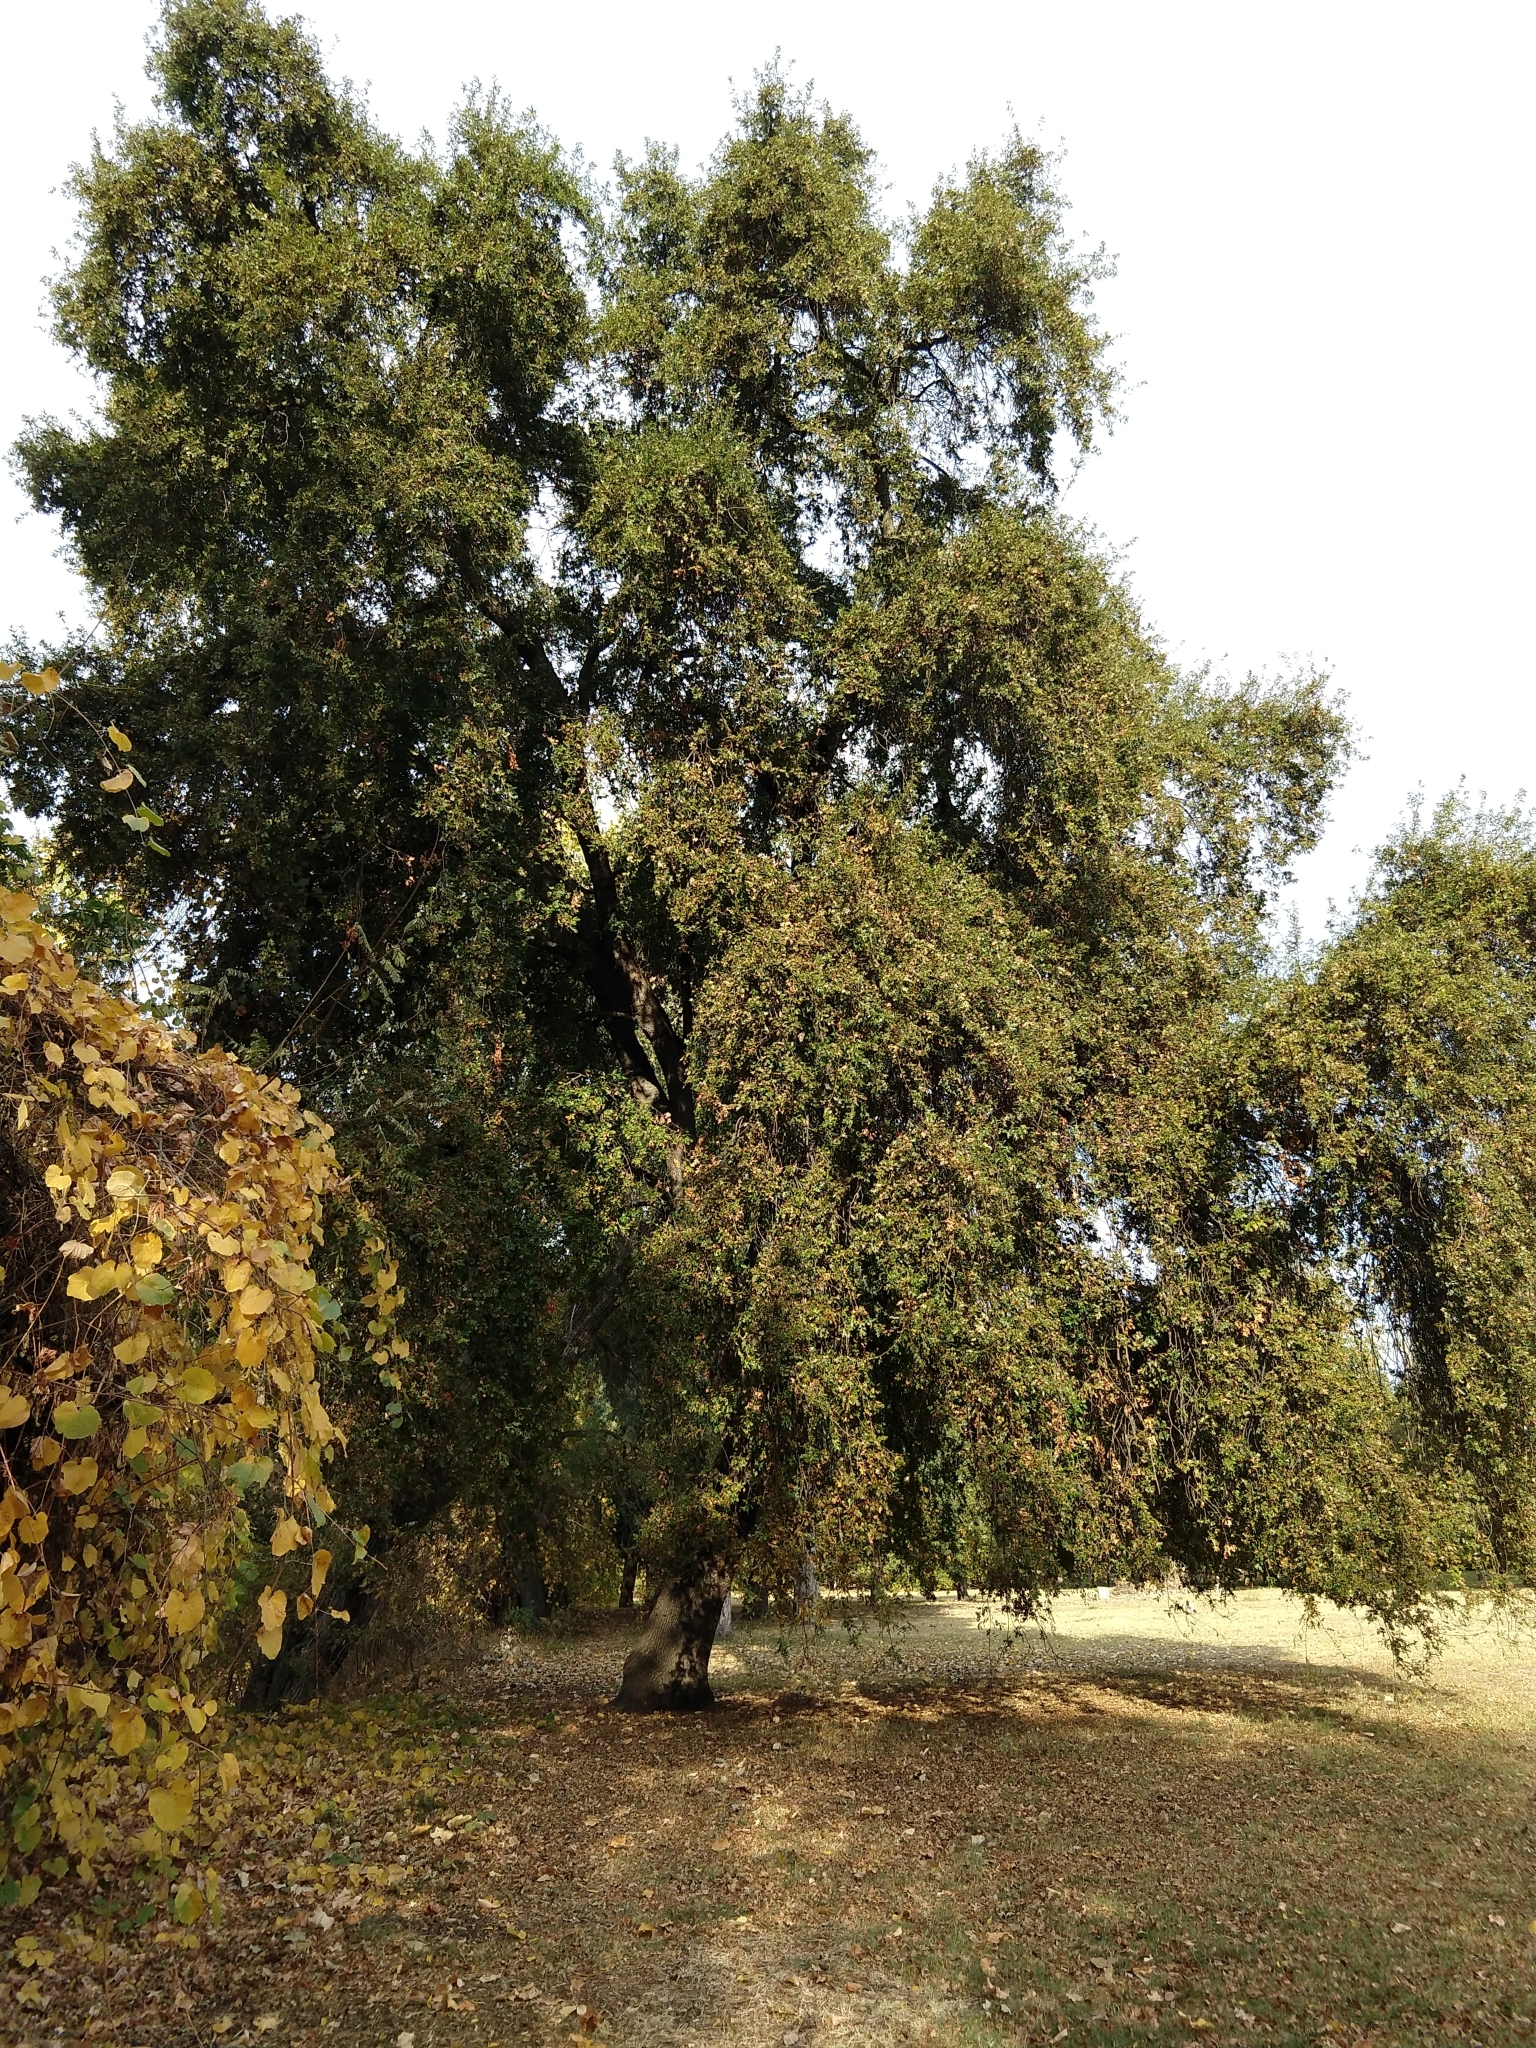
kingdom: Plantae
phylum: Tracheophyta
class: Magnoliopsida
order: Fagales
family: Fagaceae
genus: Quercus
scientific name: Quercus lobata
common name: Valley oak
